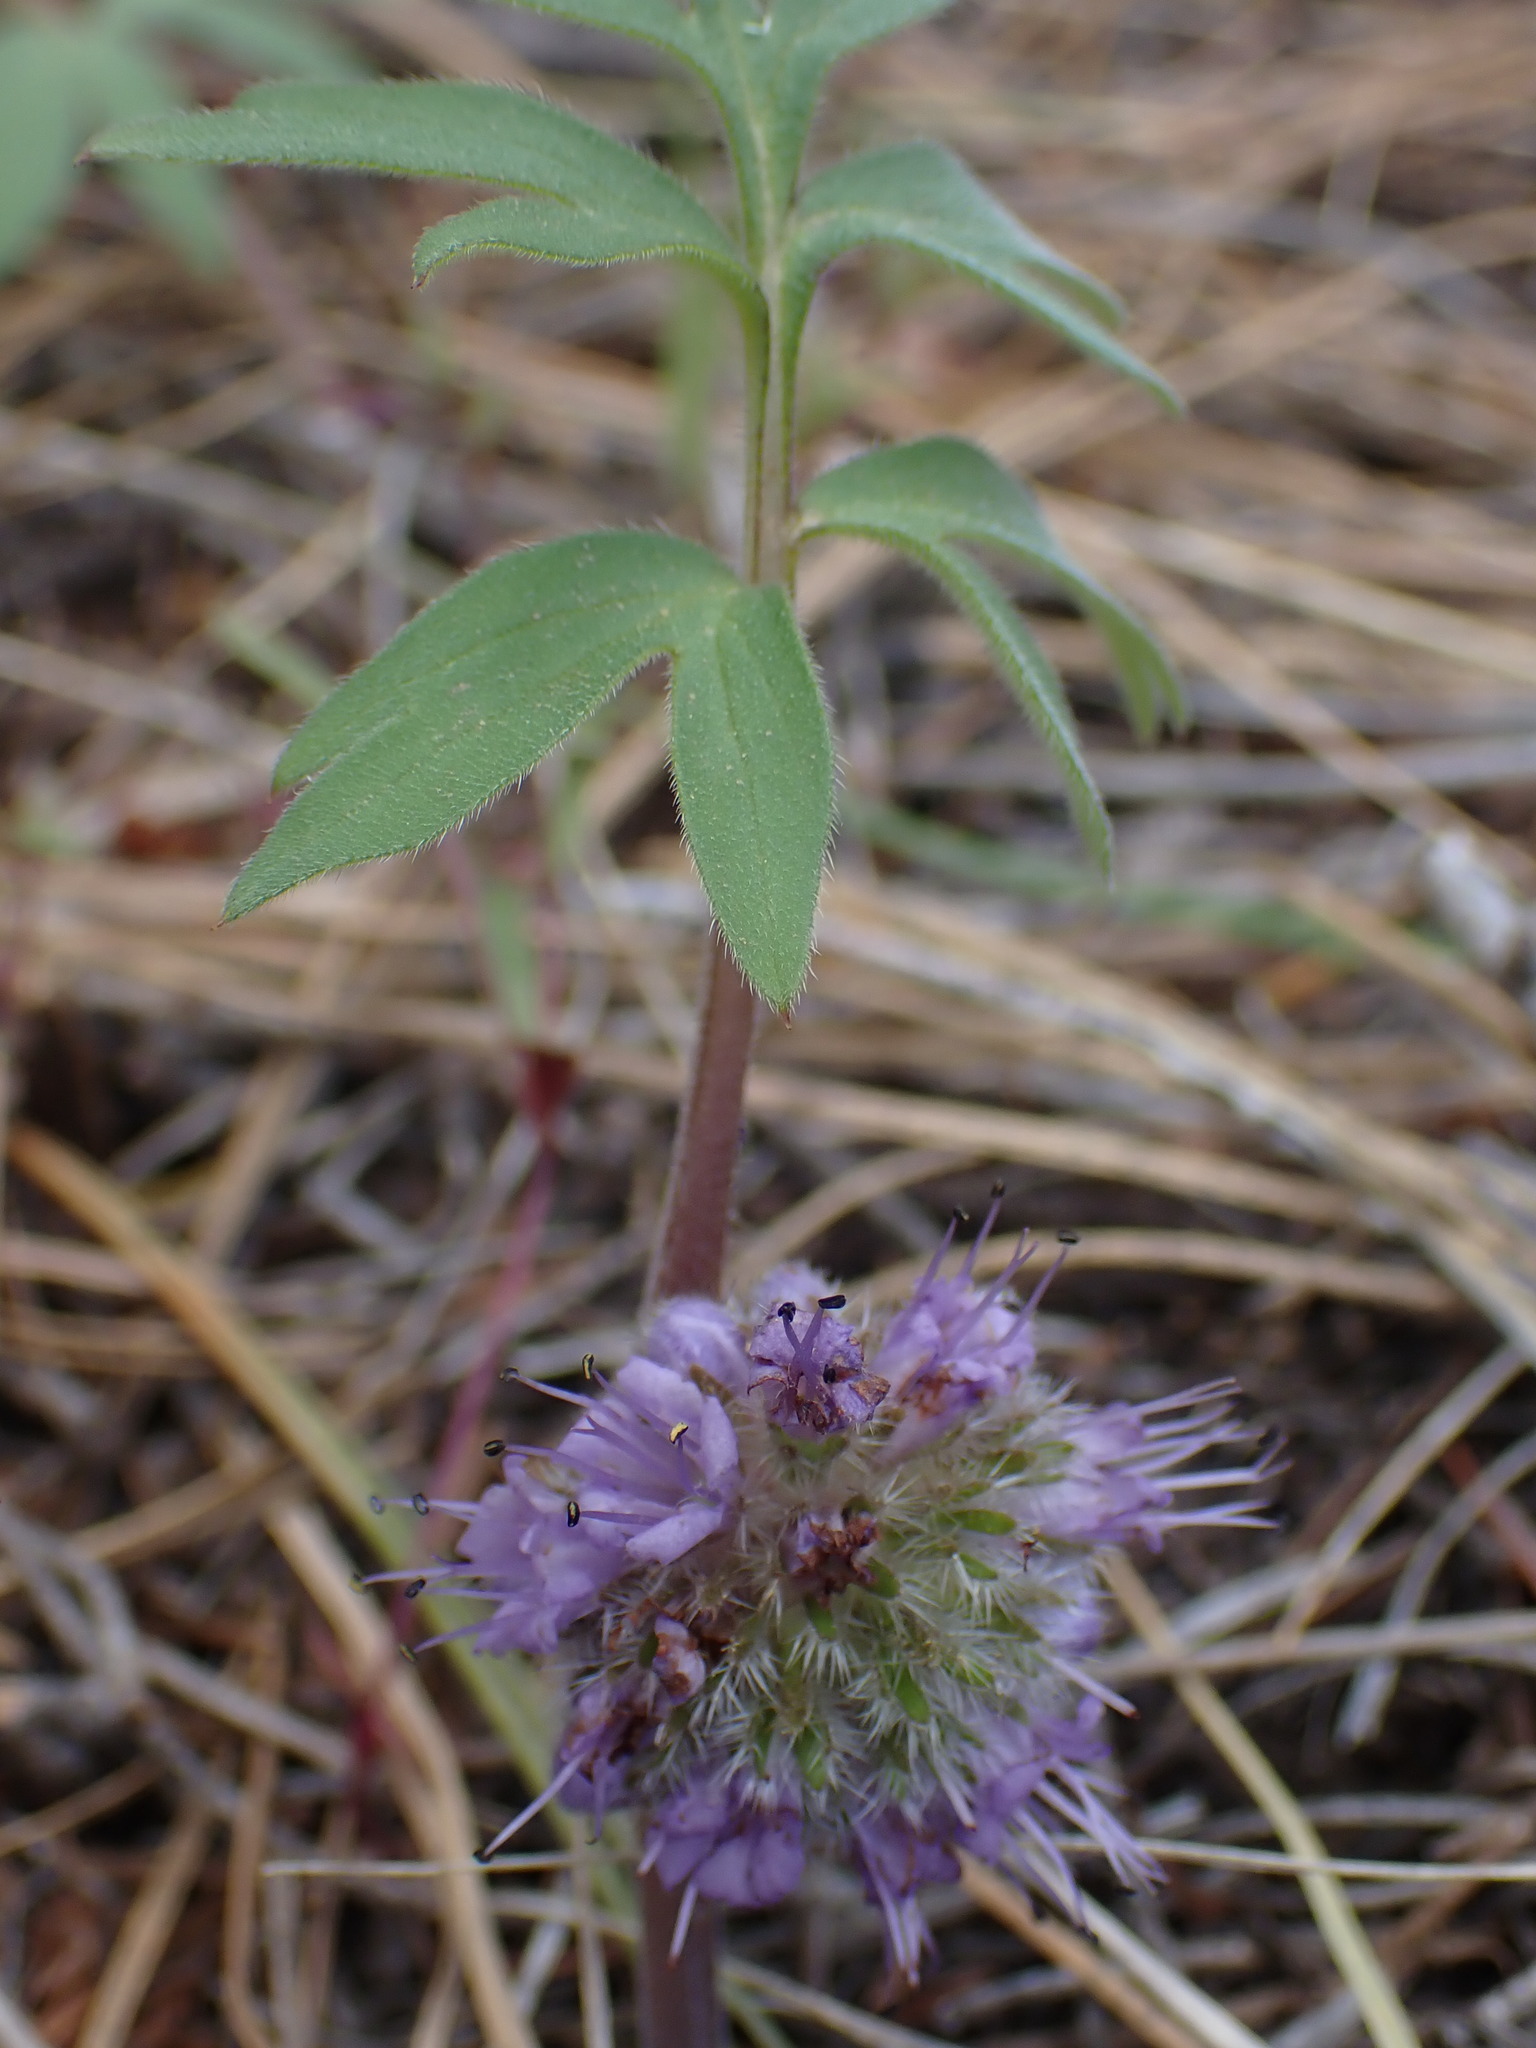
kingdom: Plantae
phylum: Tracheophyta
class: Magnoliopsida
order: Boraginales
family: Hydrophyllaceae
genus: Hydrophyllum
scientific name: Hydrophyllum capitatum
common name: Woollen-breeches
